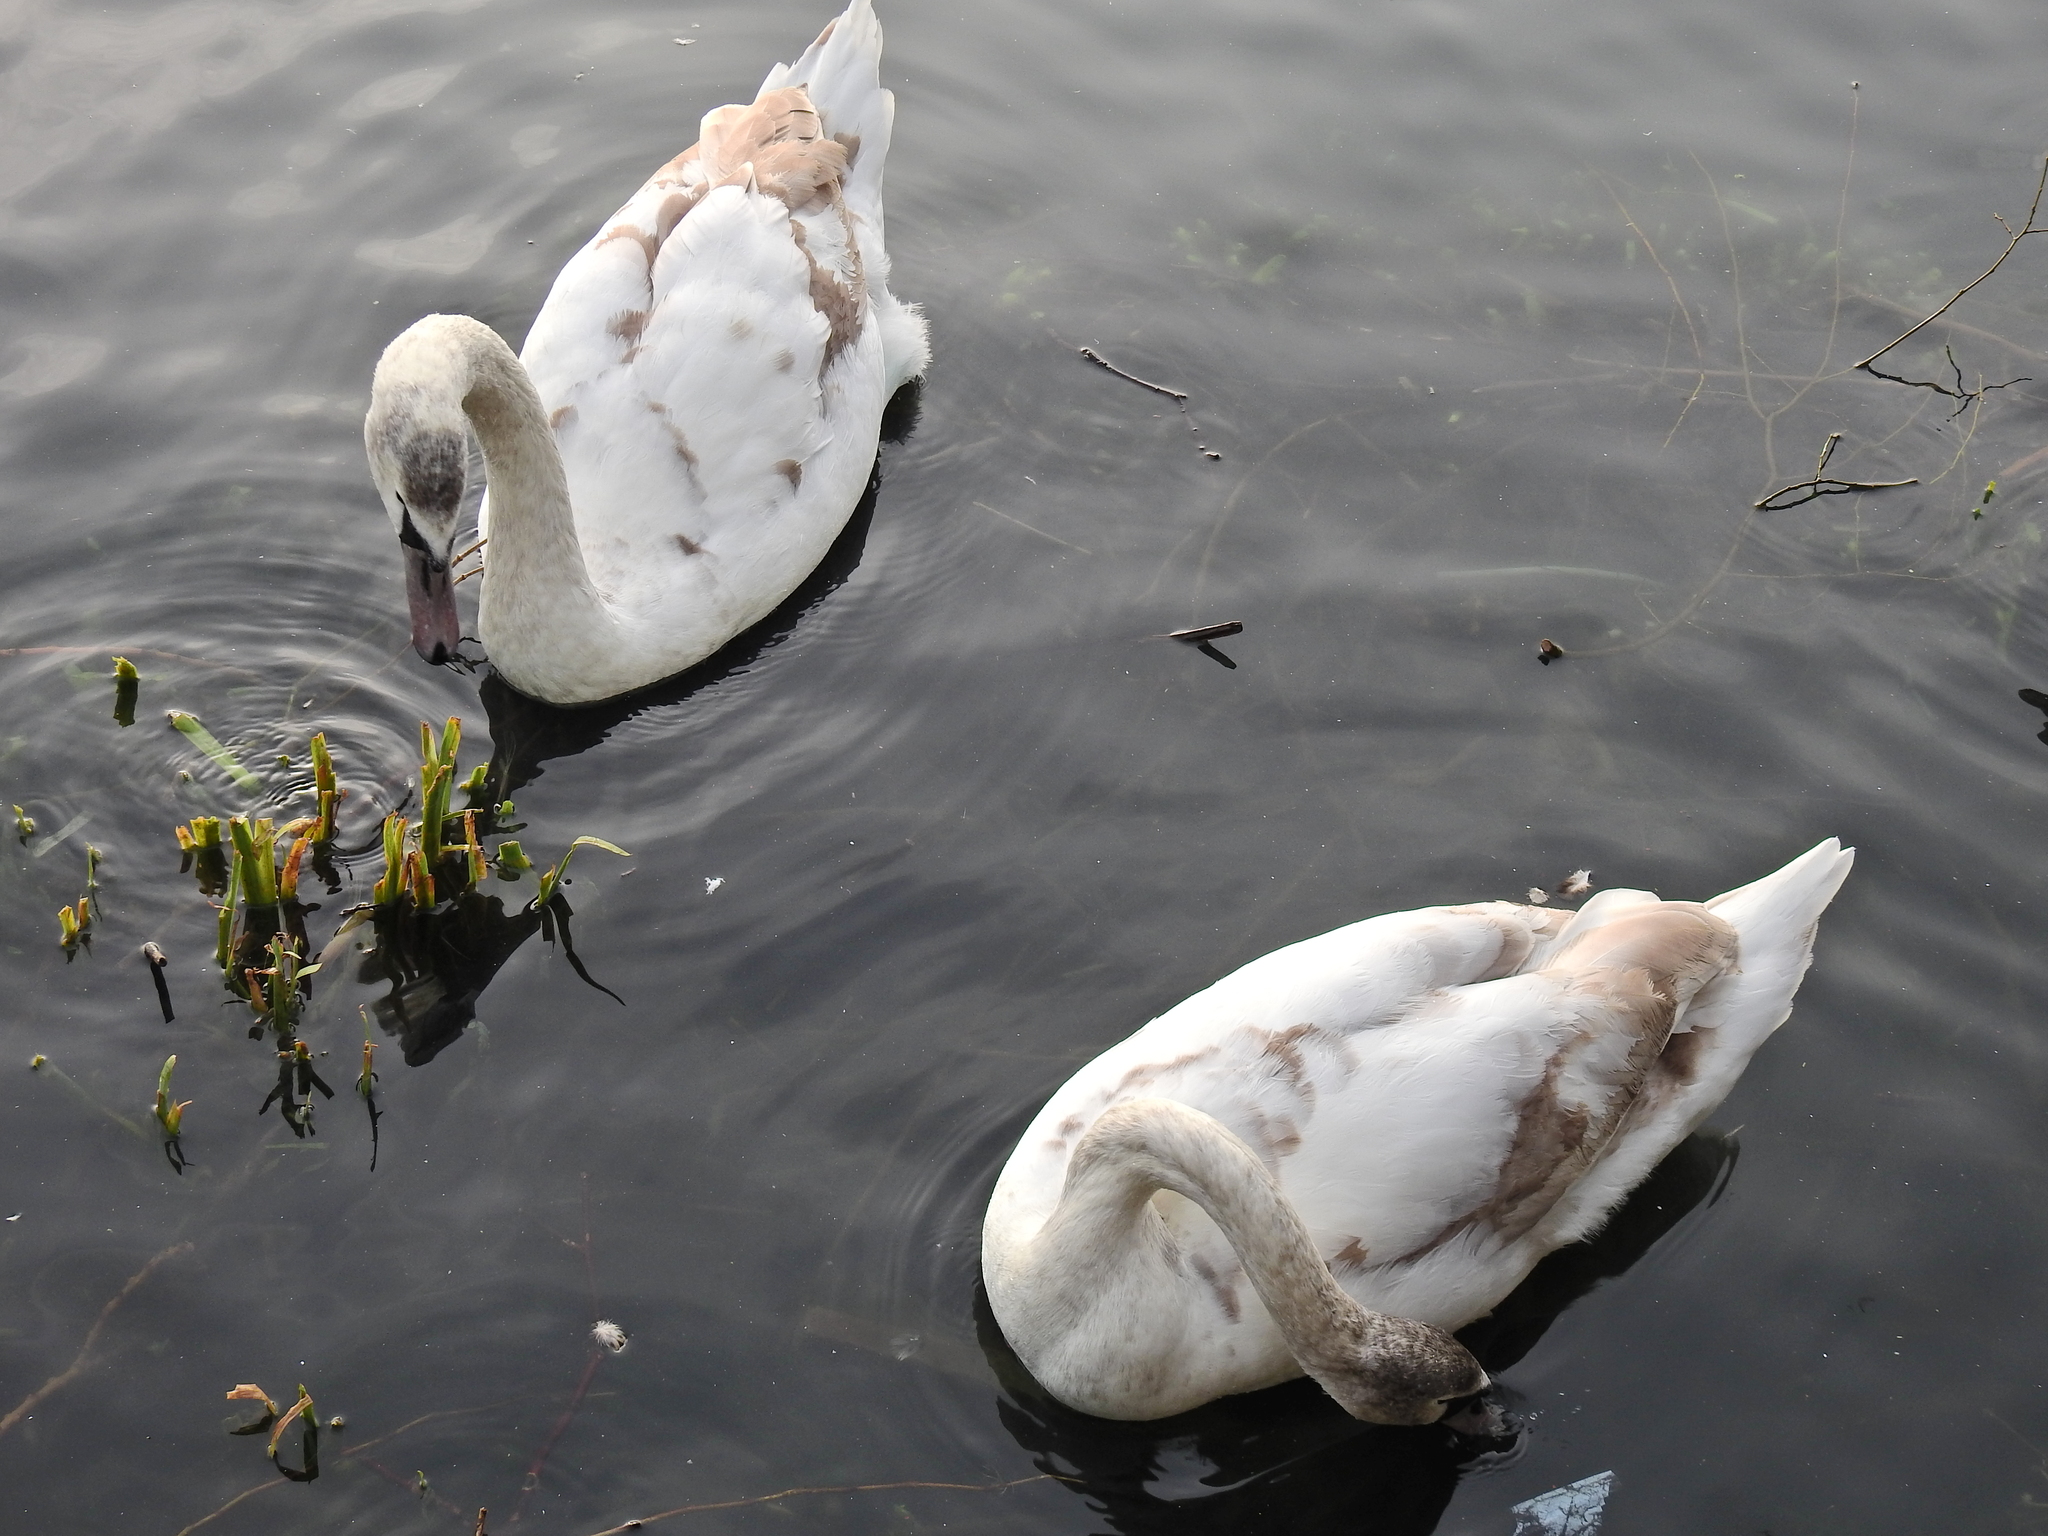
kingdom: Animalia
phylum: Chordata
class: Aves
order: Anseriformes
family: Anatidae
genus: Cygnus
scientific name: Cygnus olor
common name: Mute swan
